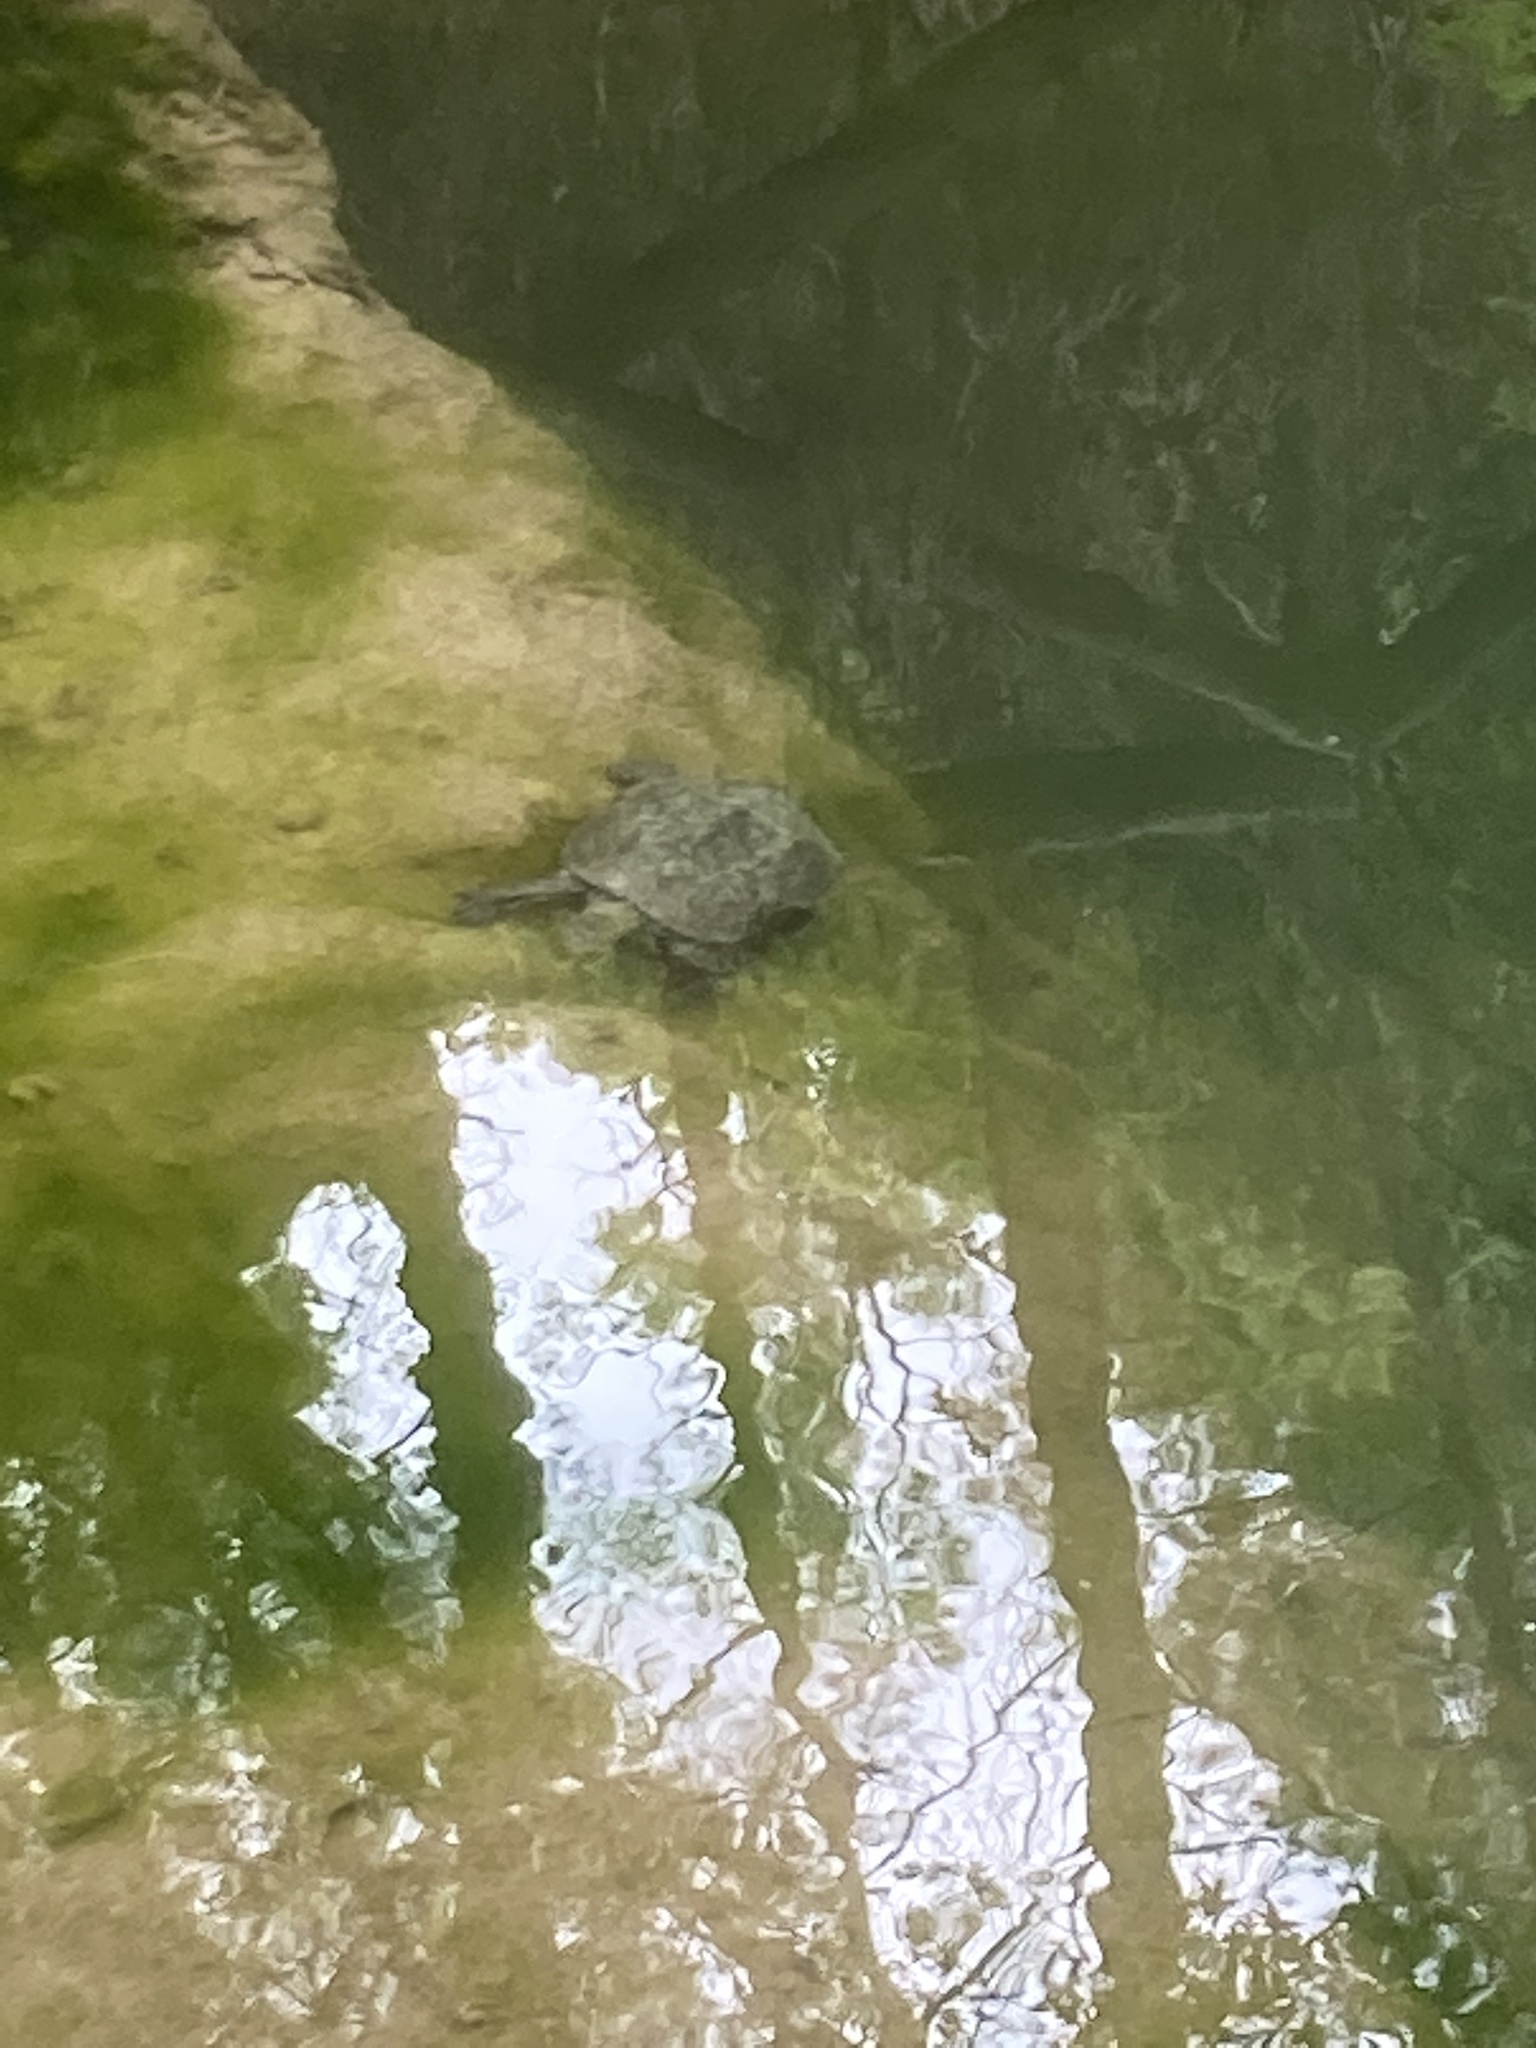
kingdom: Animalia
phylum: Chordata
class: Testudines
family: Geoemydidae
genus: Mauremys
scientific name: Mauremys rivulata
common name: Western caspian turtle
